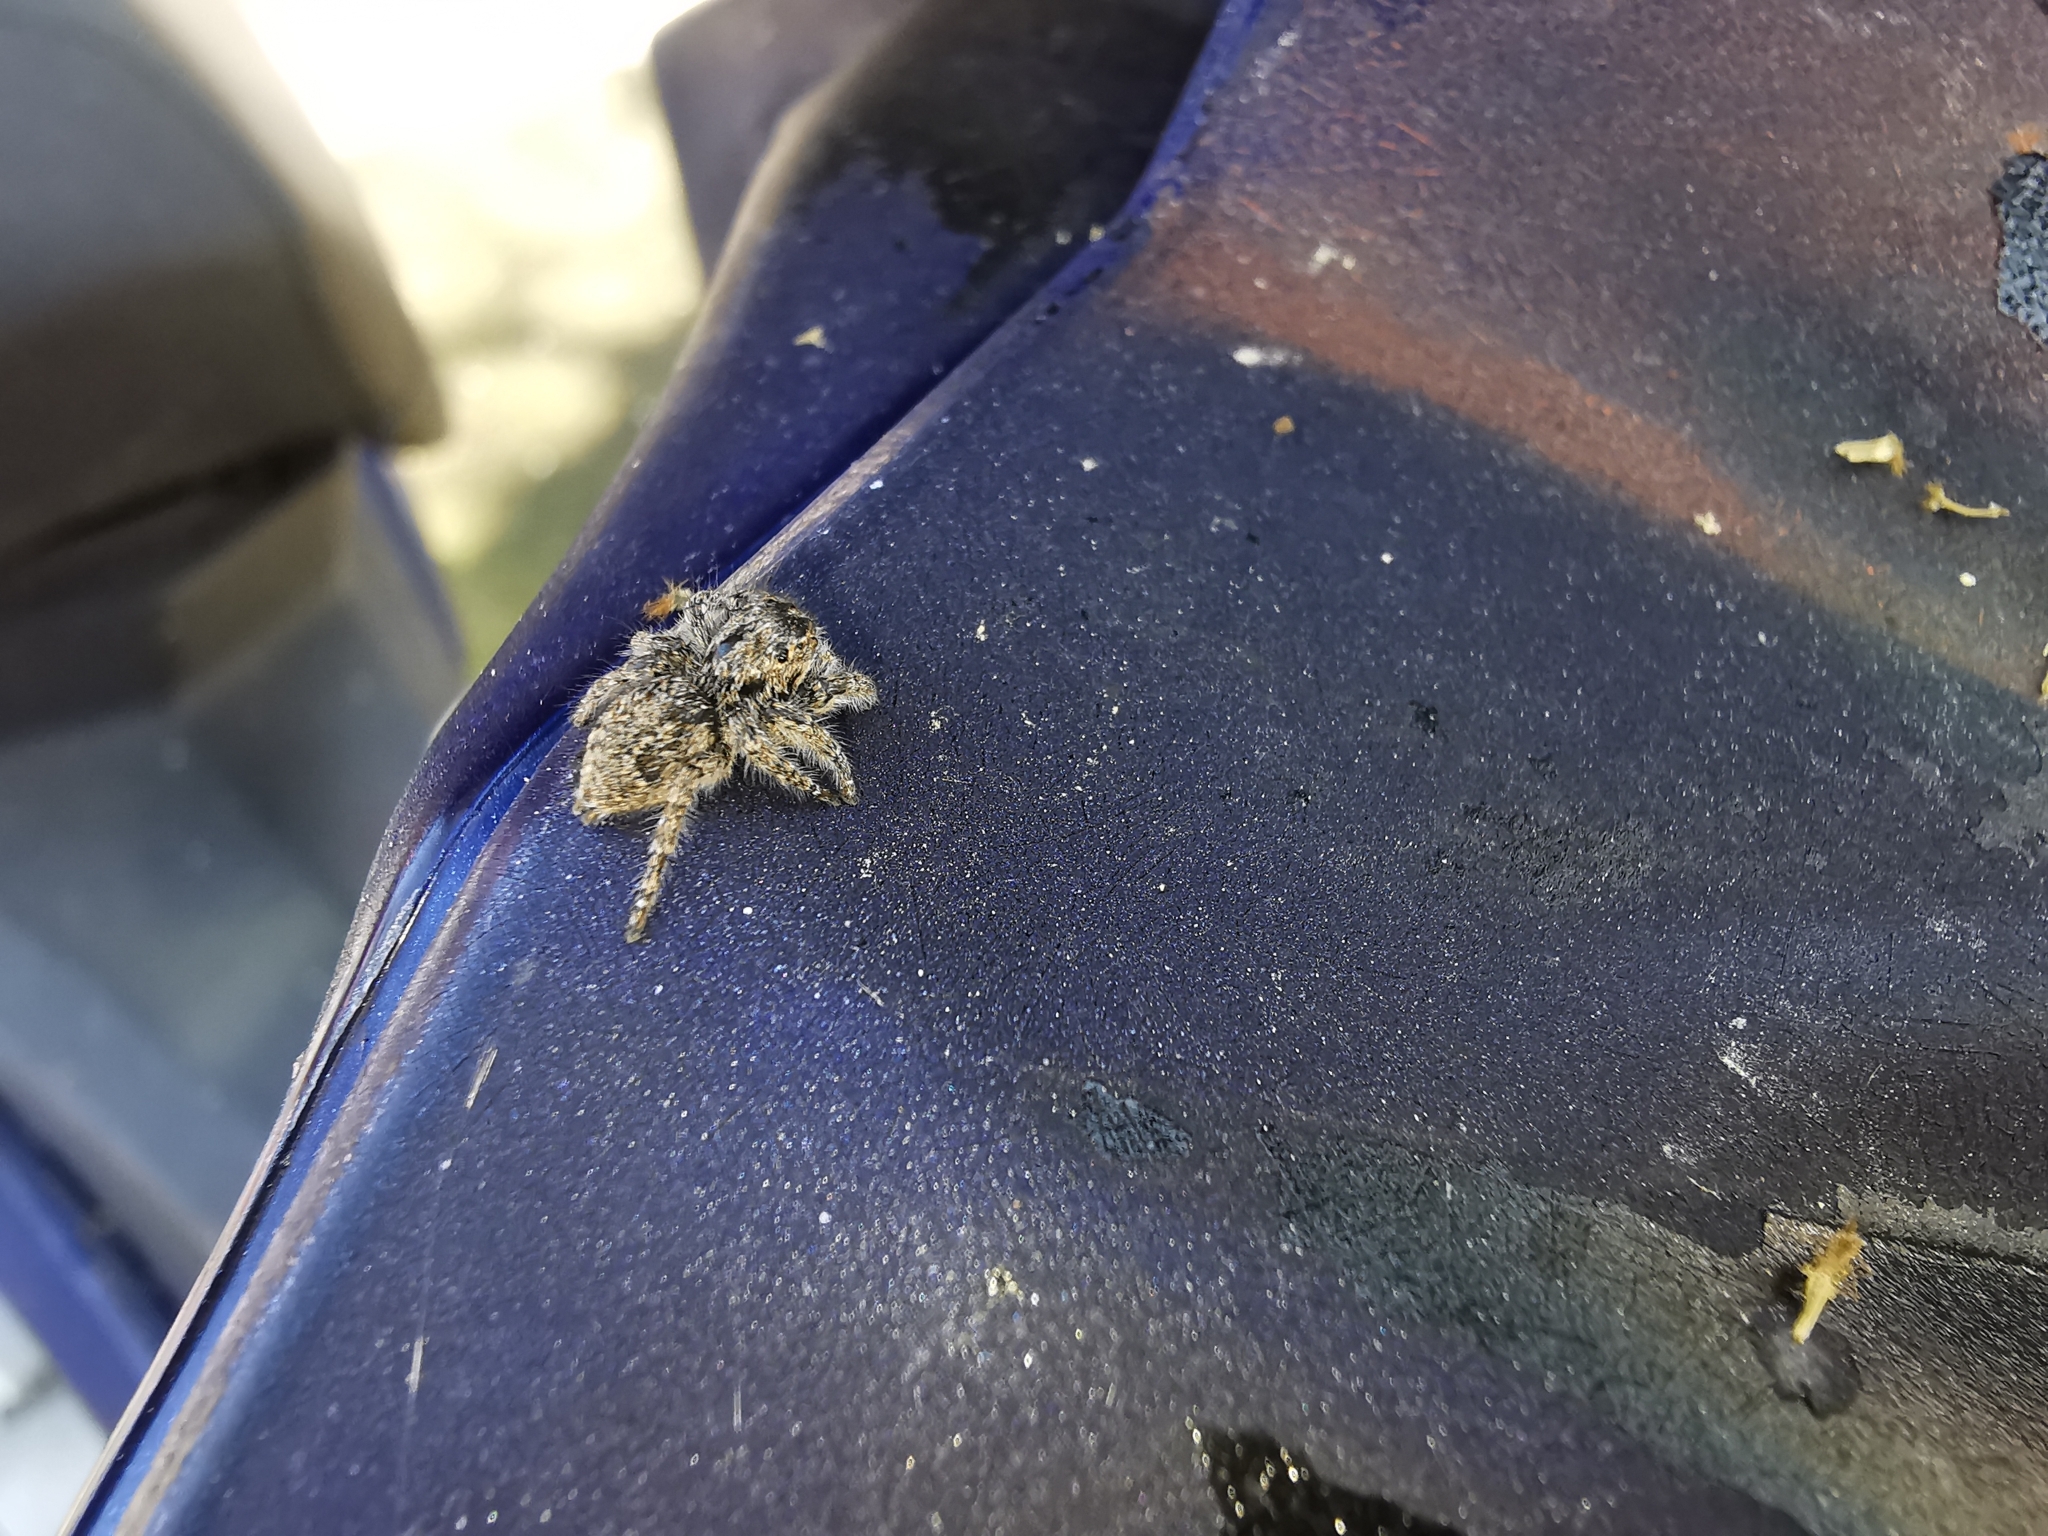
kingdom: Animalia
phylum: Arthropoda
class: Arachnida
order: Araneae
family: Salticidae
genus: Philaeus
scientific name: Philaeus chrysops
